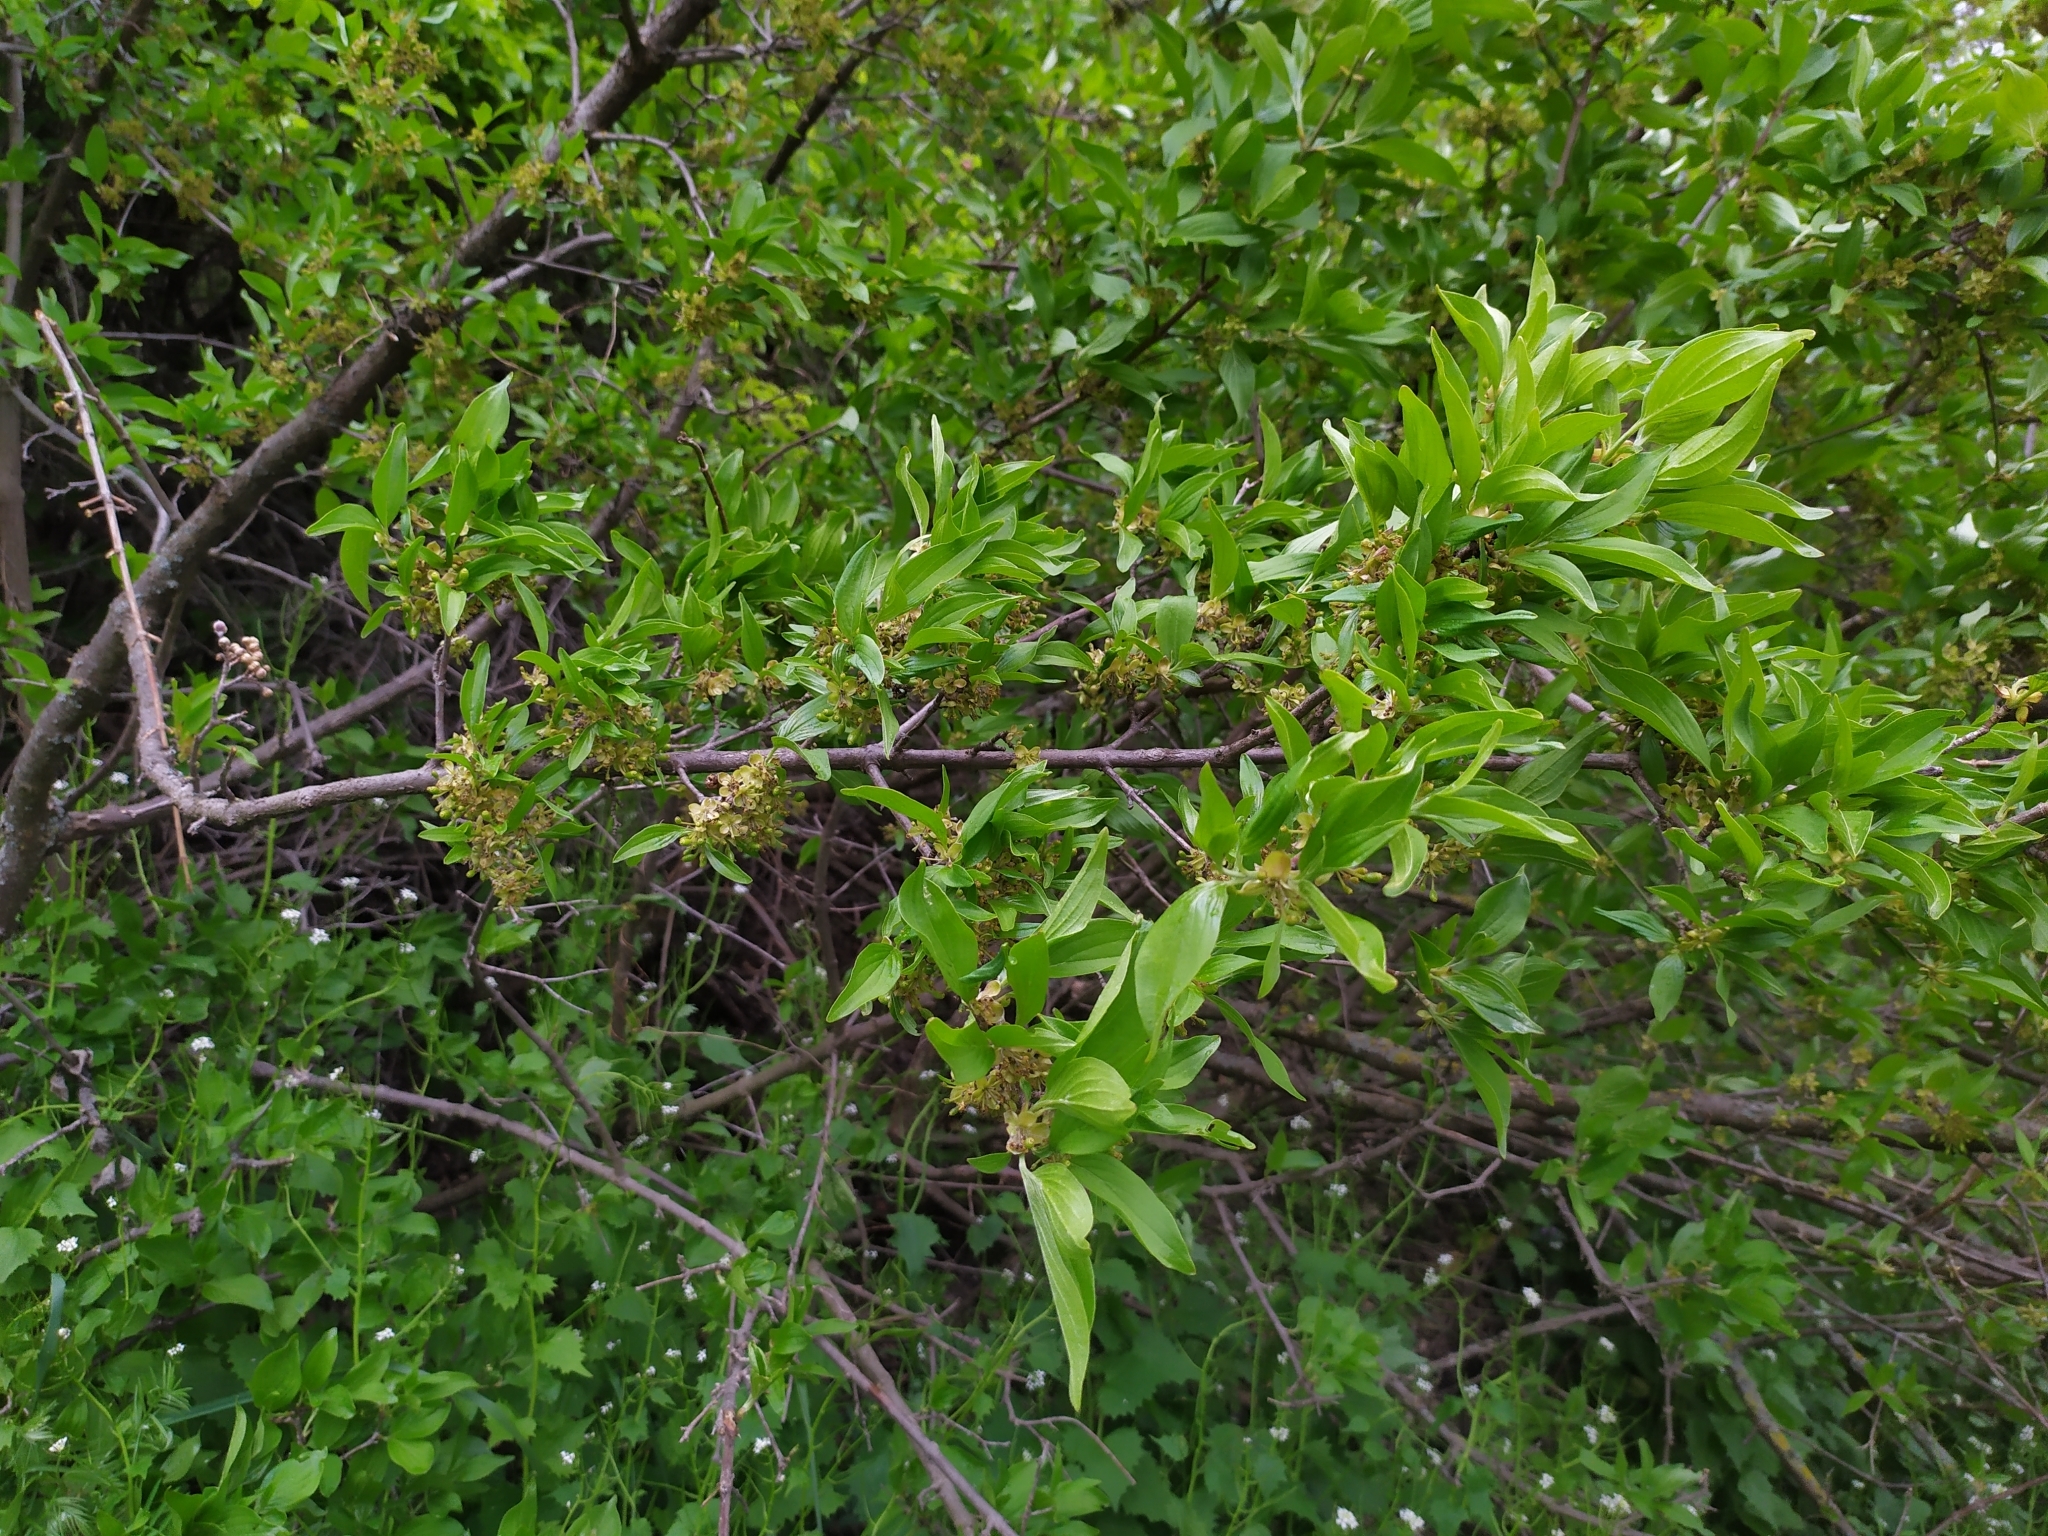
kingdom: Plantae
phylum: Tracheophyta
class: Magnoliopsida
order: Cornales
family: Cornaceae
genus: Cornus
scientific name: Cornus mas
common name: Cornelian-cherry
